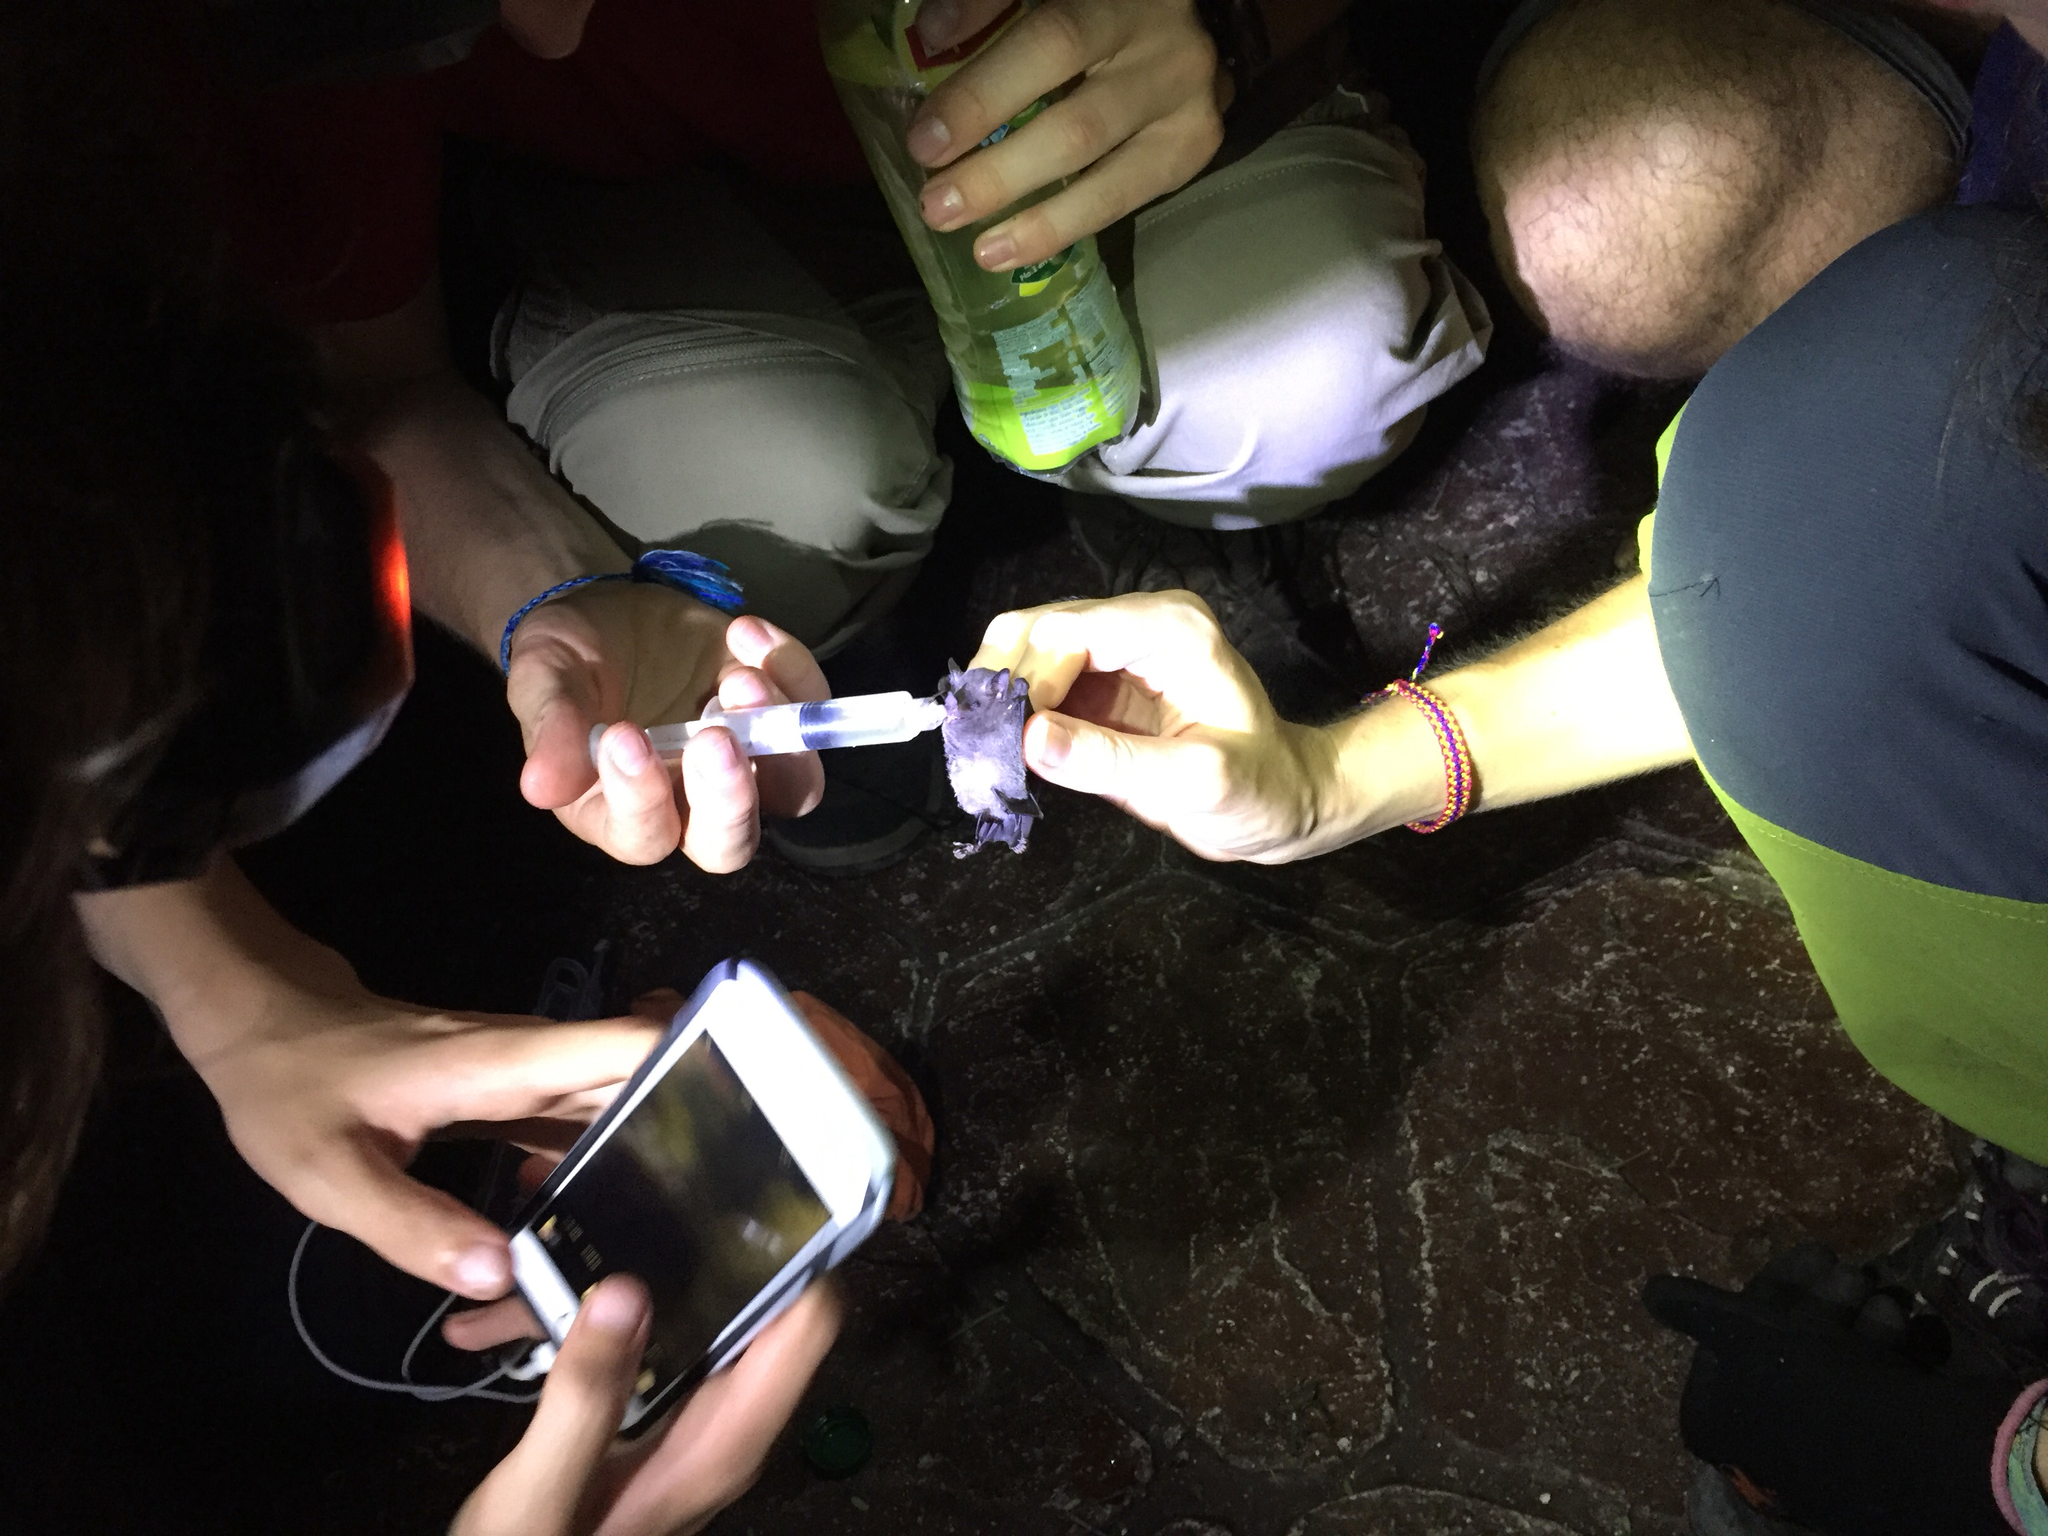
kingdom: Animalia
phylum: Chordata
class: Mammalia
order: Chiroptera
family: Phyllostomidae
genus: Glossophaga
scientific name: Glossophaga soricina
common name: Pallas's long-tongued bat
